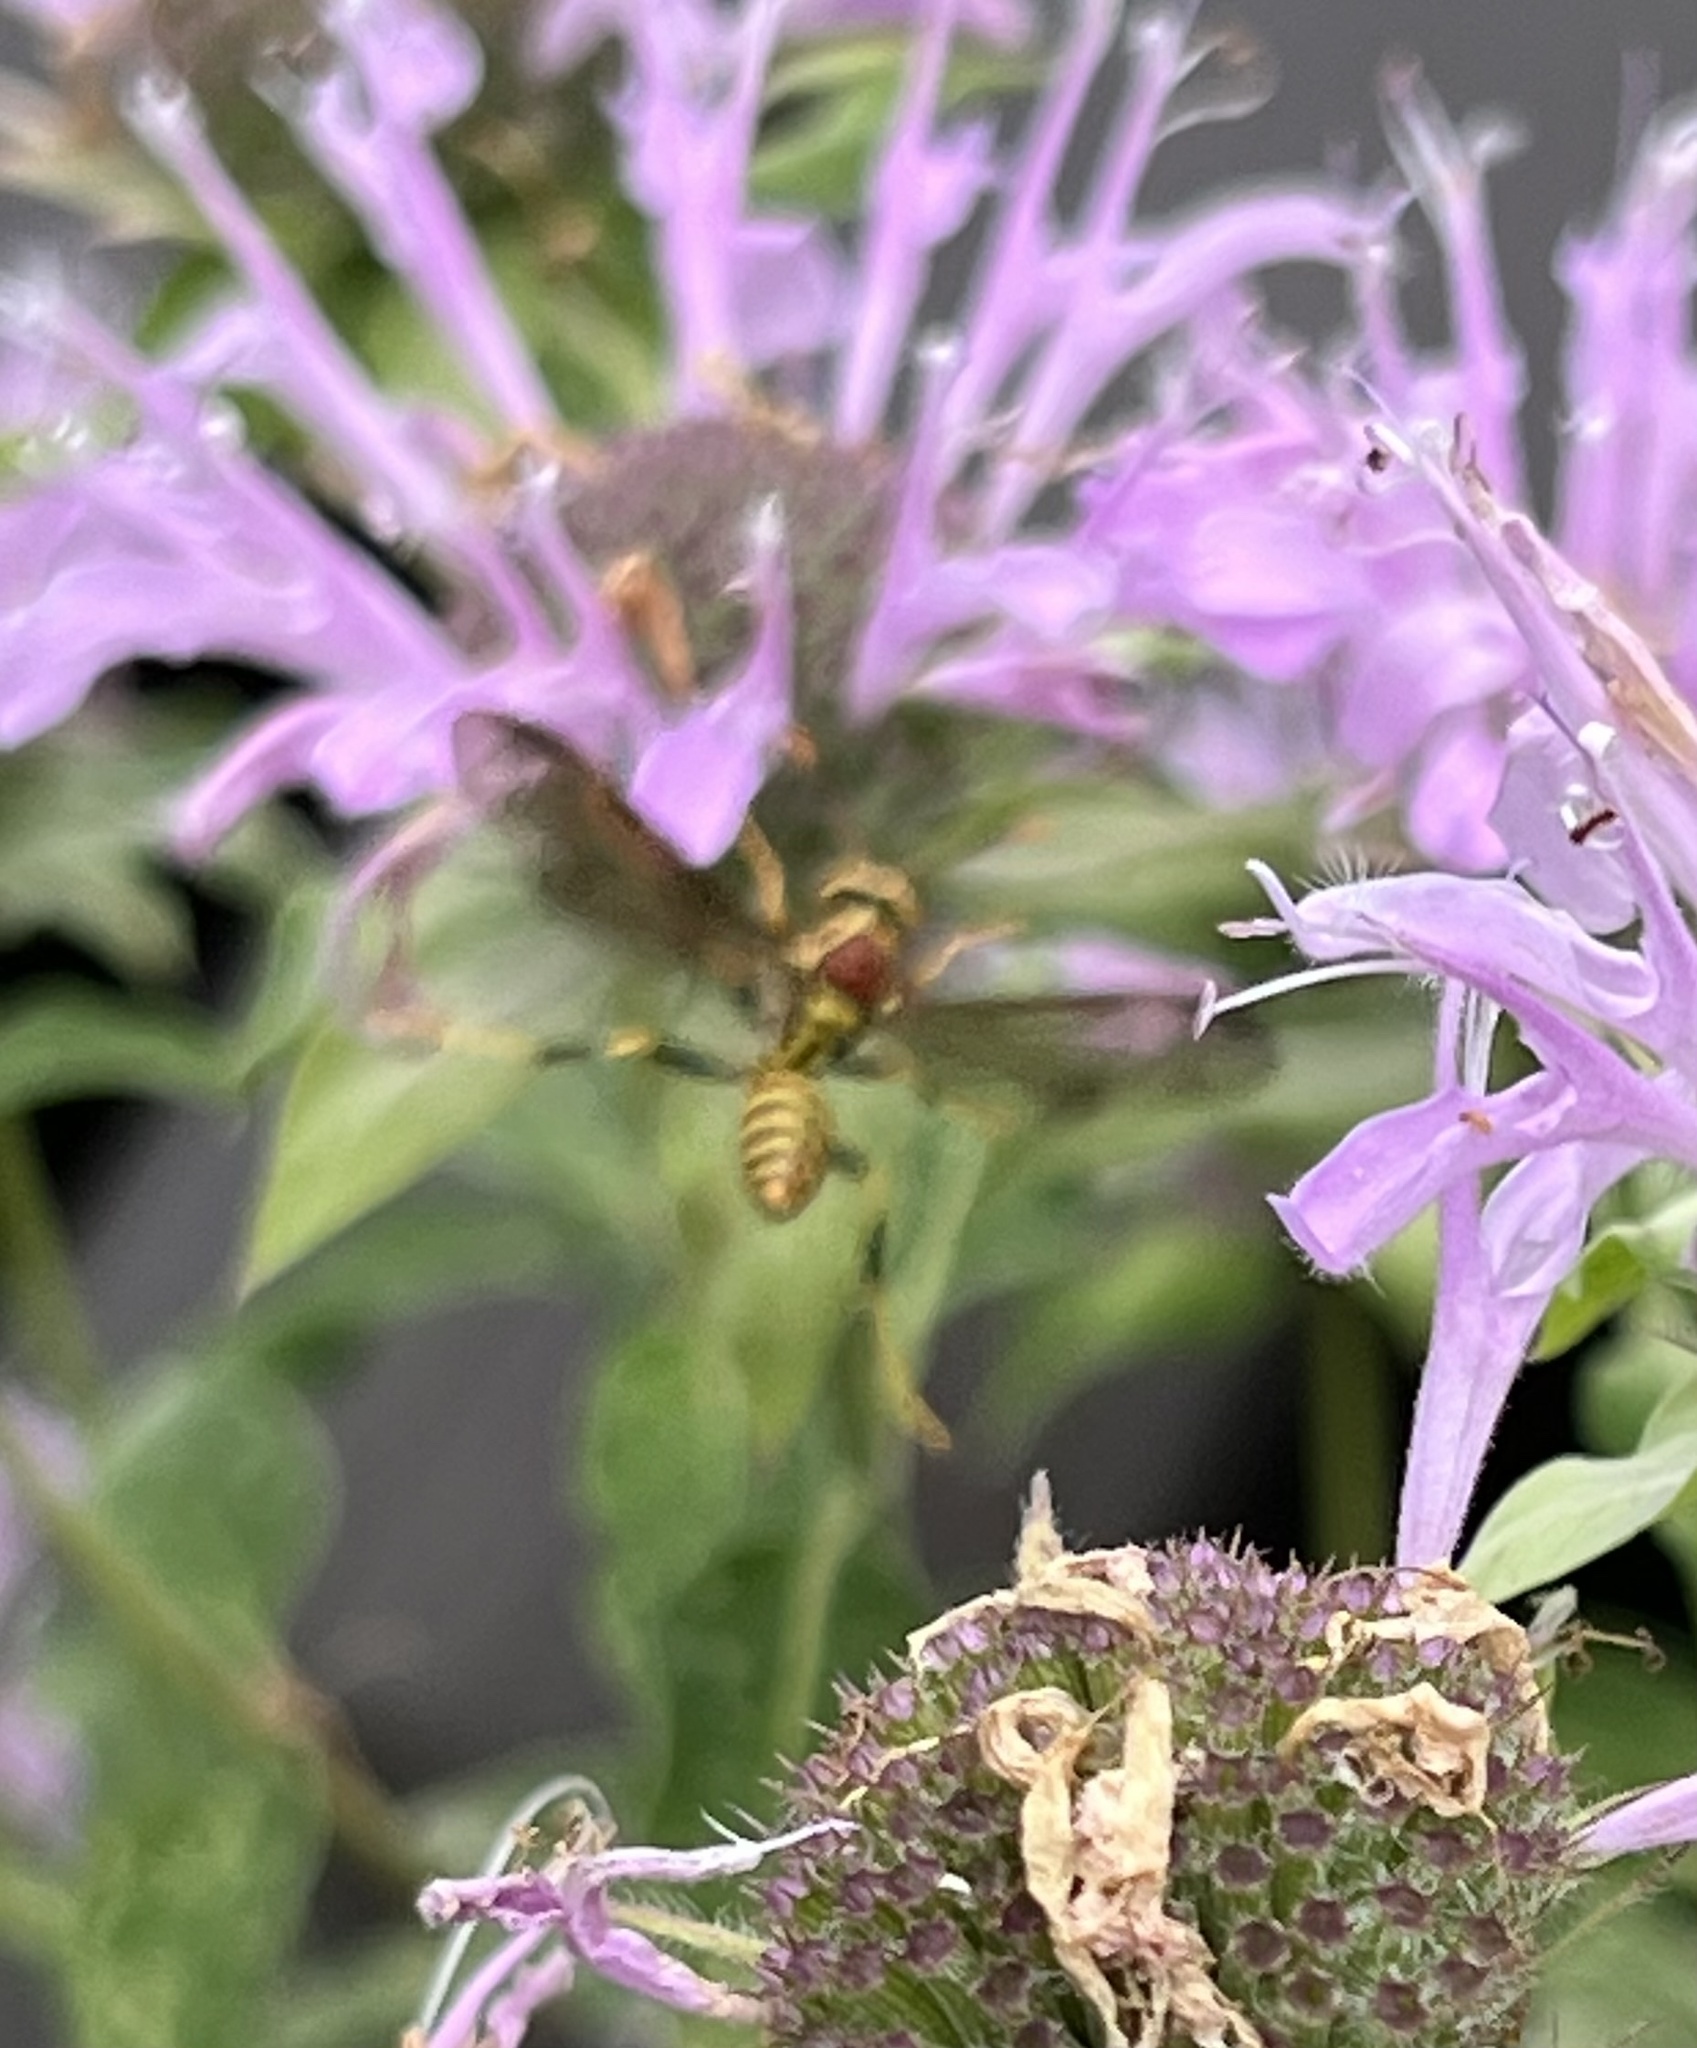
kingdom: Animalia
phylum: Arthropoda
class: Insecta
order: Hymenoptera
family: Eumenidae
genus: Polistes
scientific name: Polistes exclamans
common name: Paper wasp
